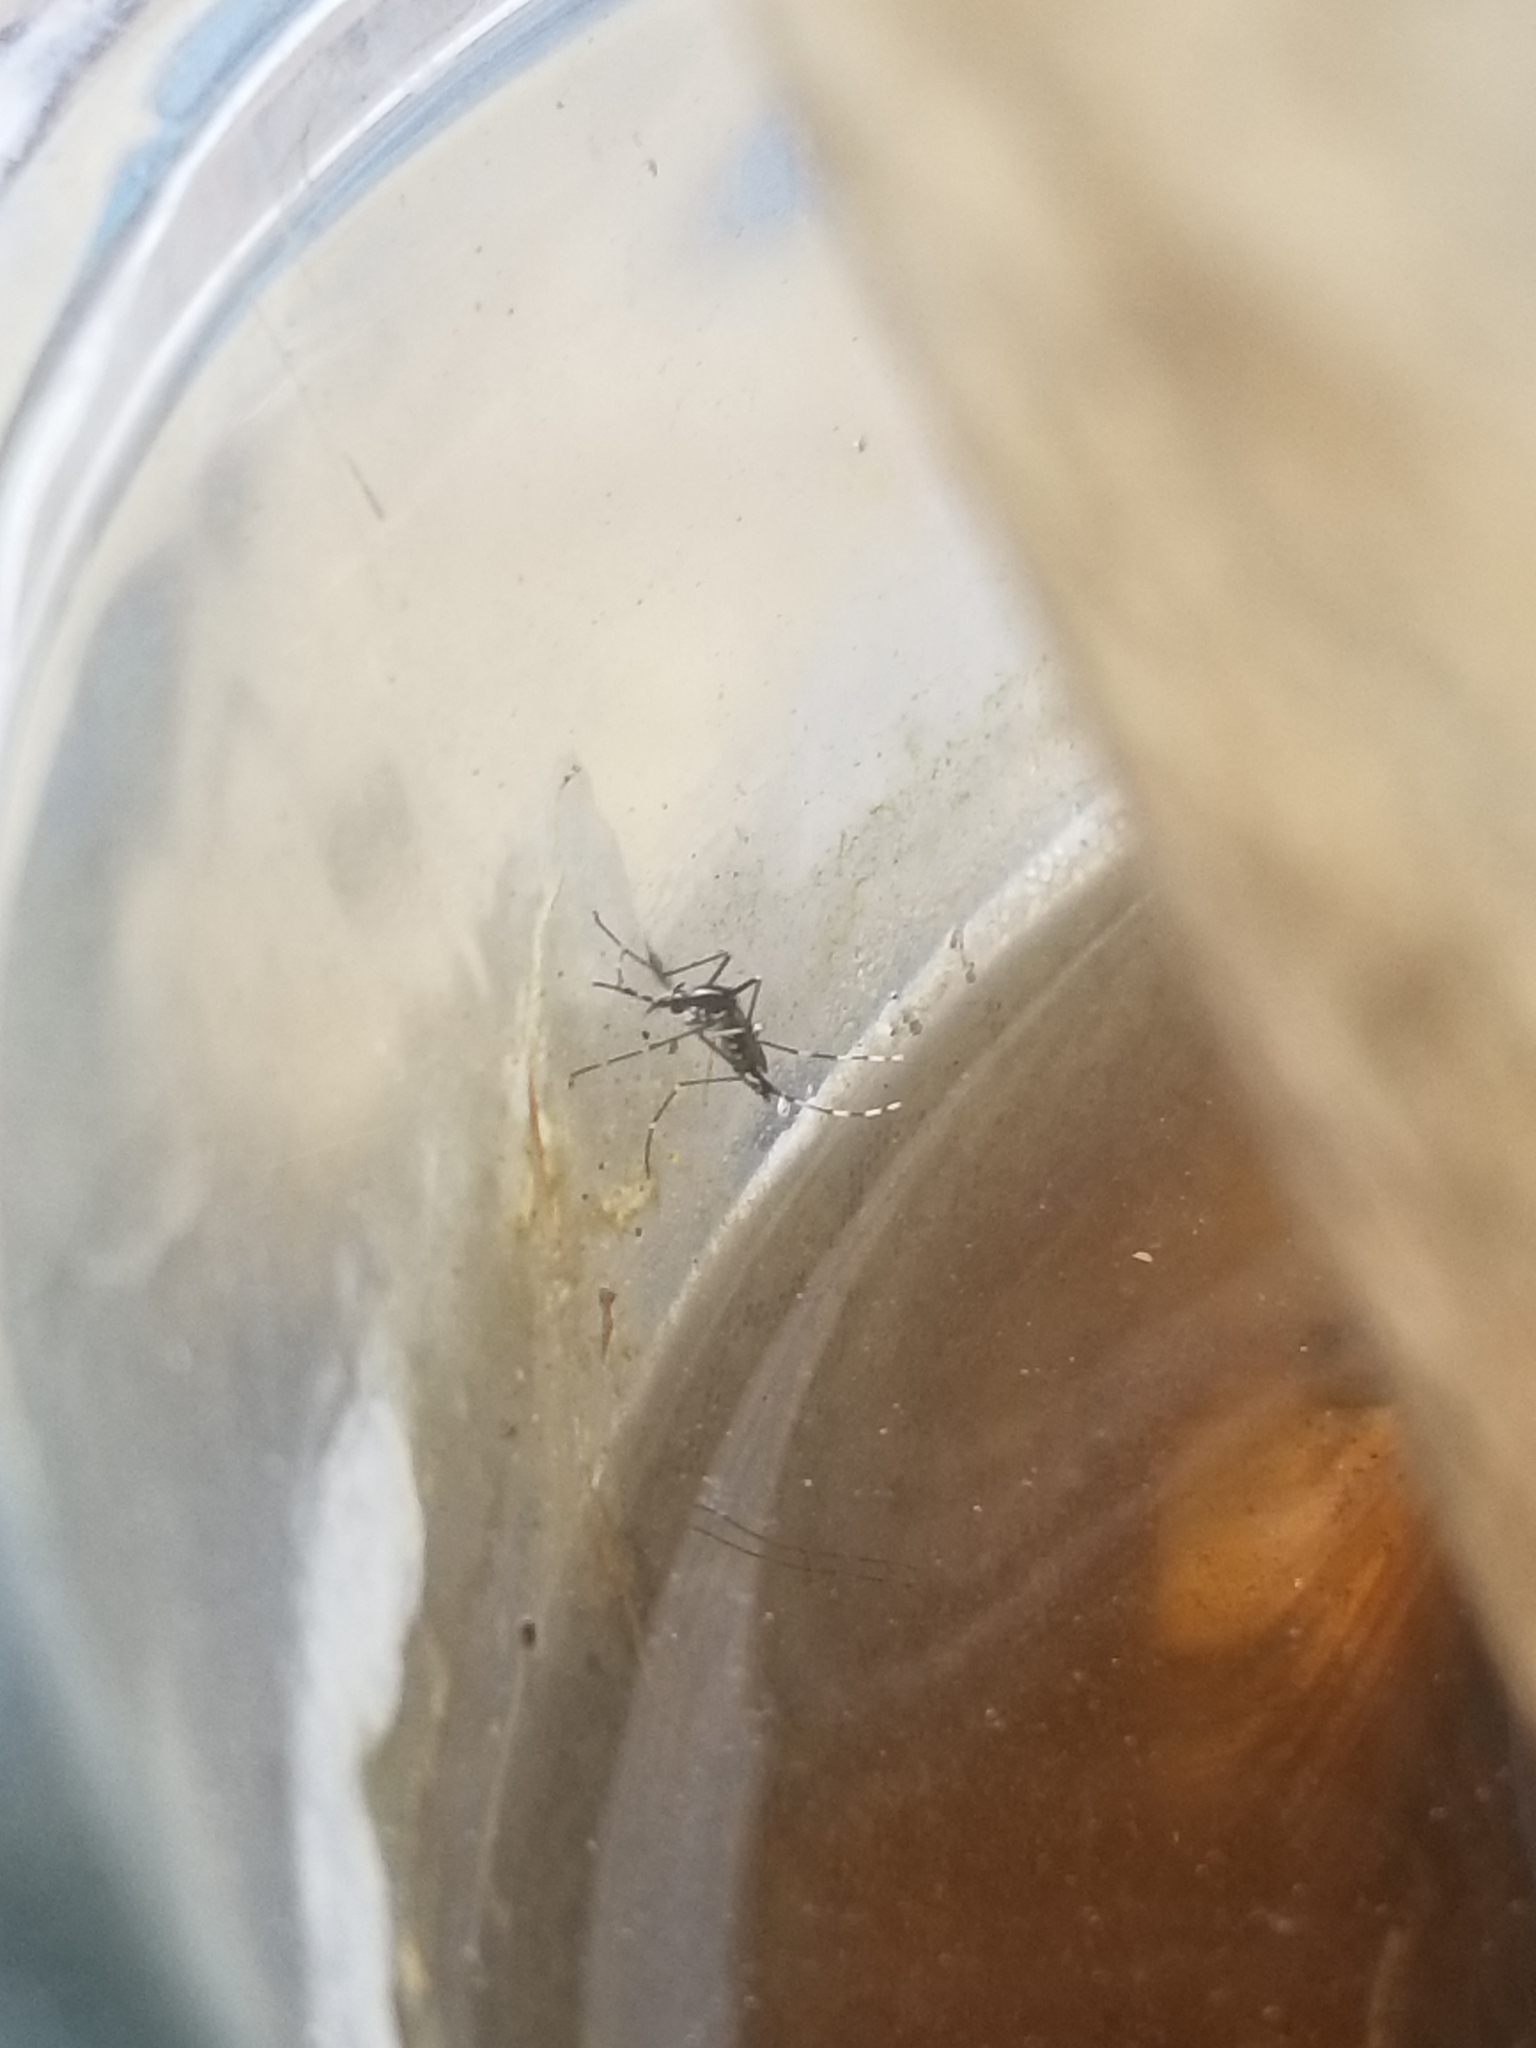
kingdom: Animalia
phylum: Arthropoda
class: Insecta
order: Diptera
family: Culicidae
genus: Aedes
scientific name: Aedes albopictus
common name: Tiger mosquito
